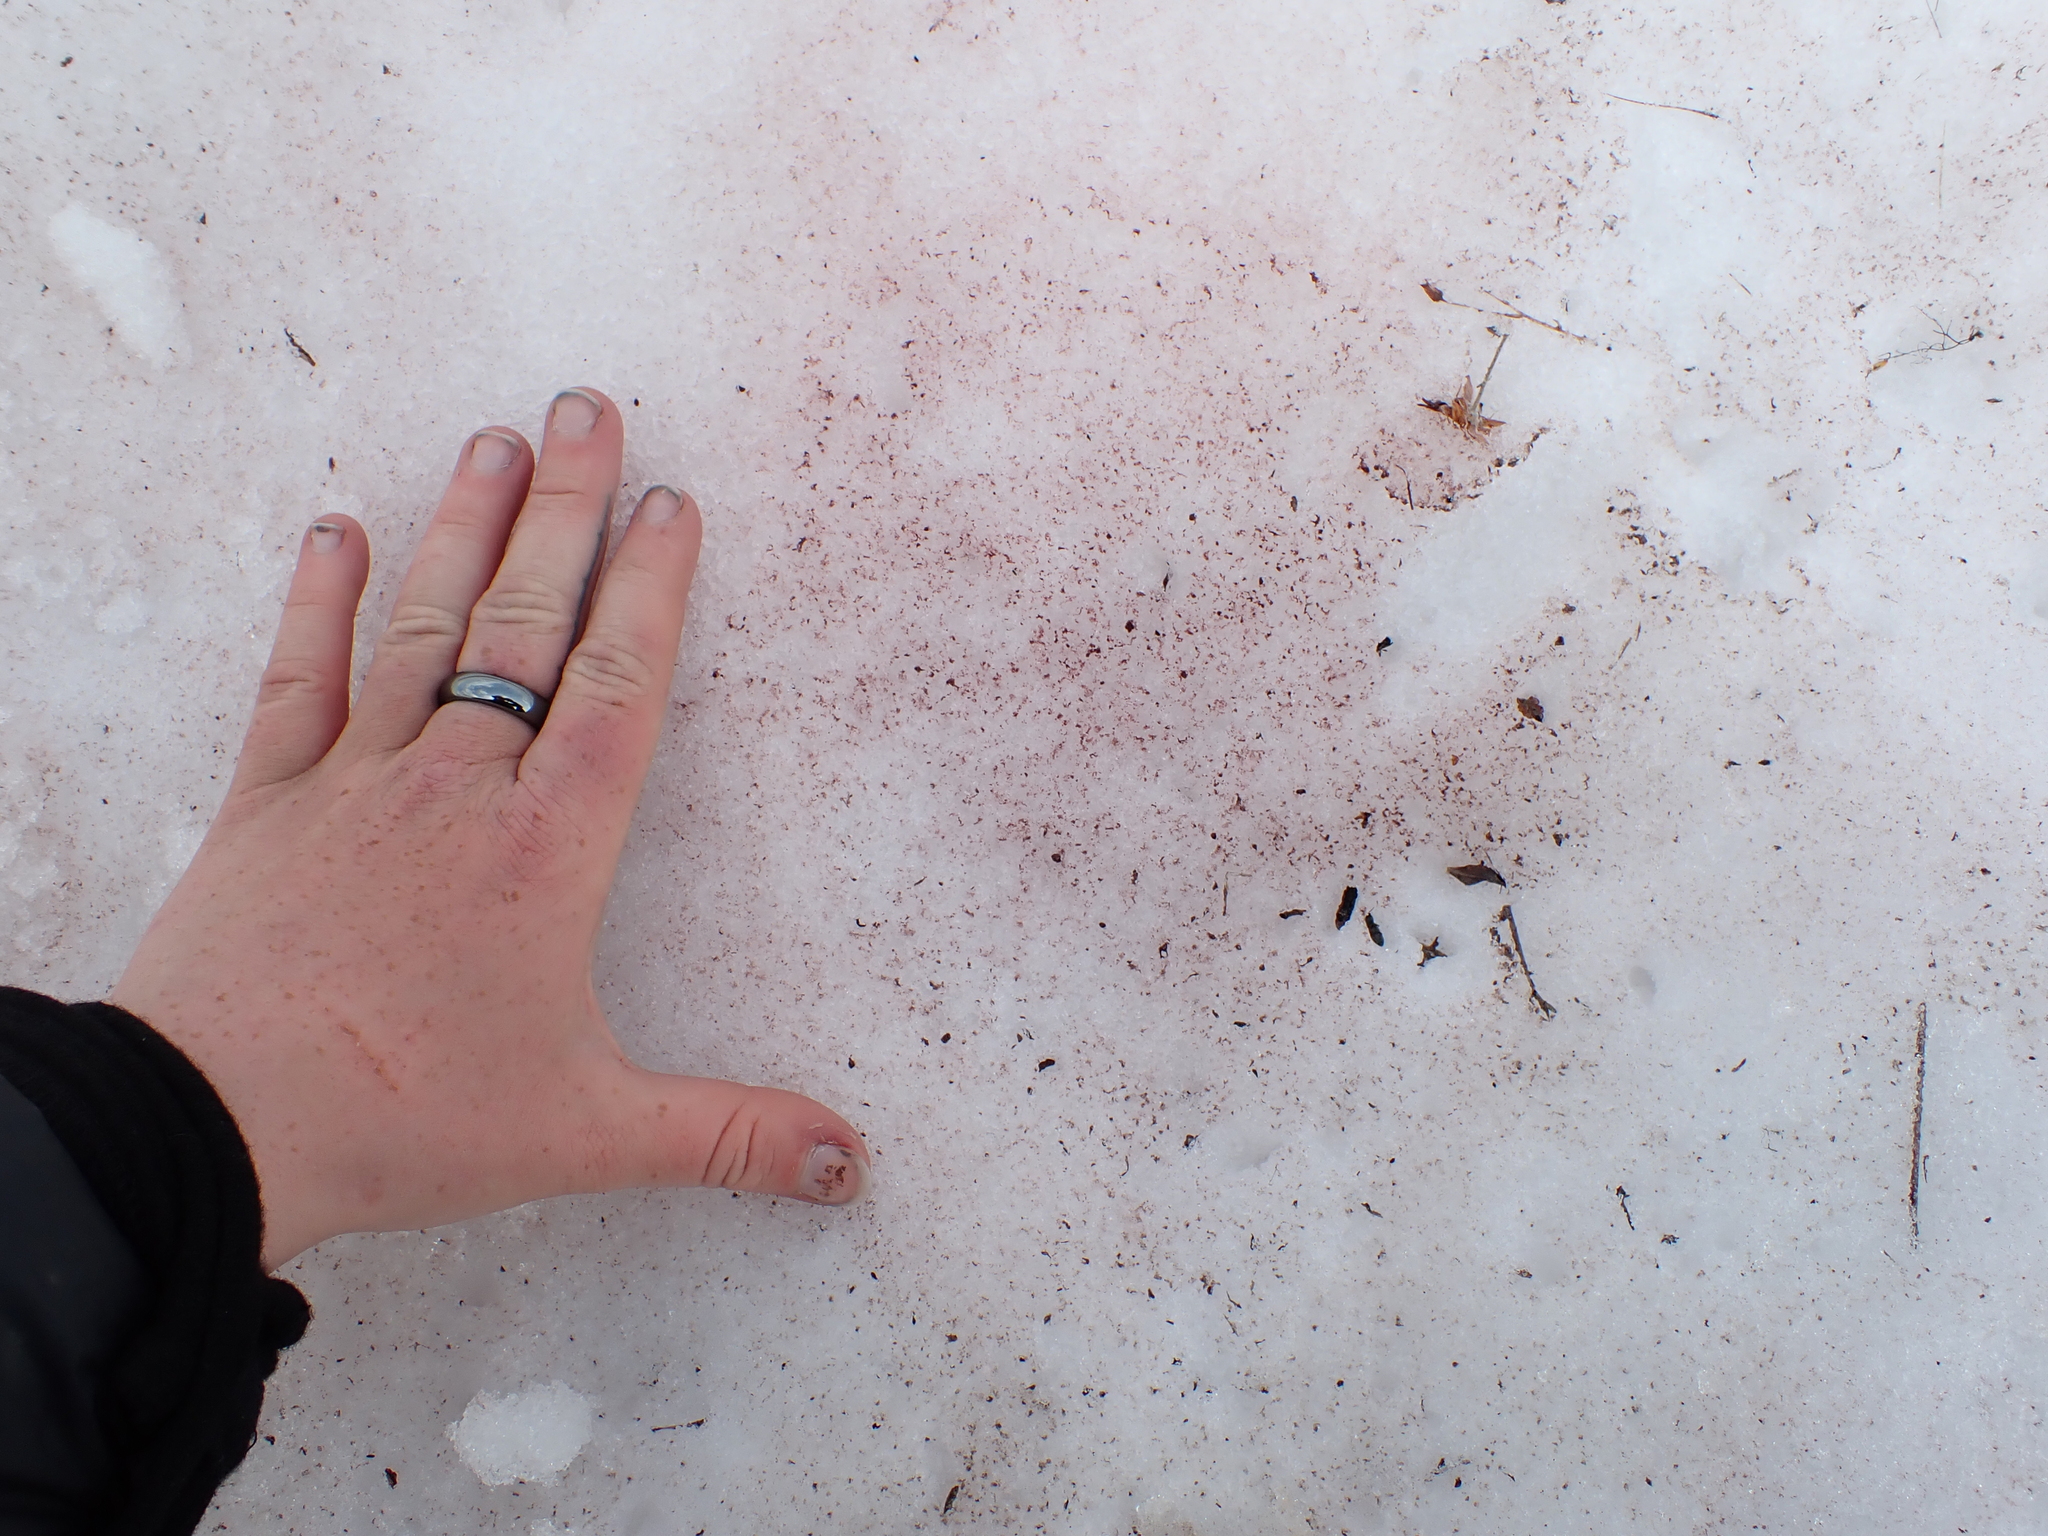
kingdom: Plantae
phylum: Chlorophyta
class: Chlorophyceae
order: Volvocales
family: Chlamydomonadaceae
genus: Chlamydomonas
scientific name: Chlamydomonas nivalis
